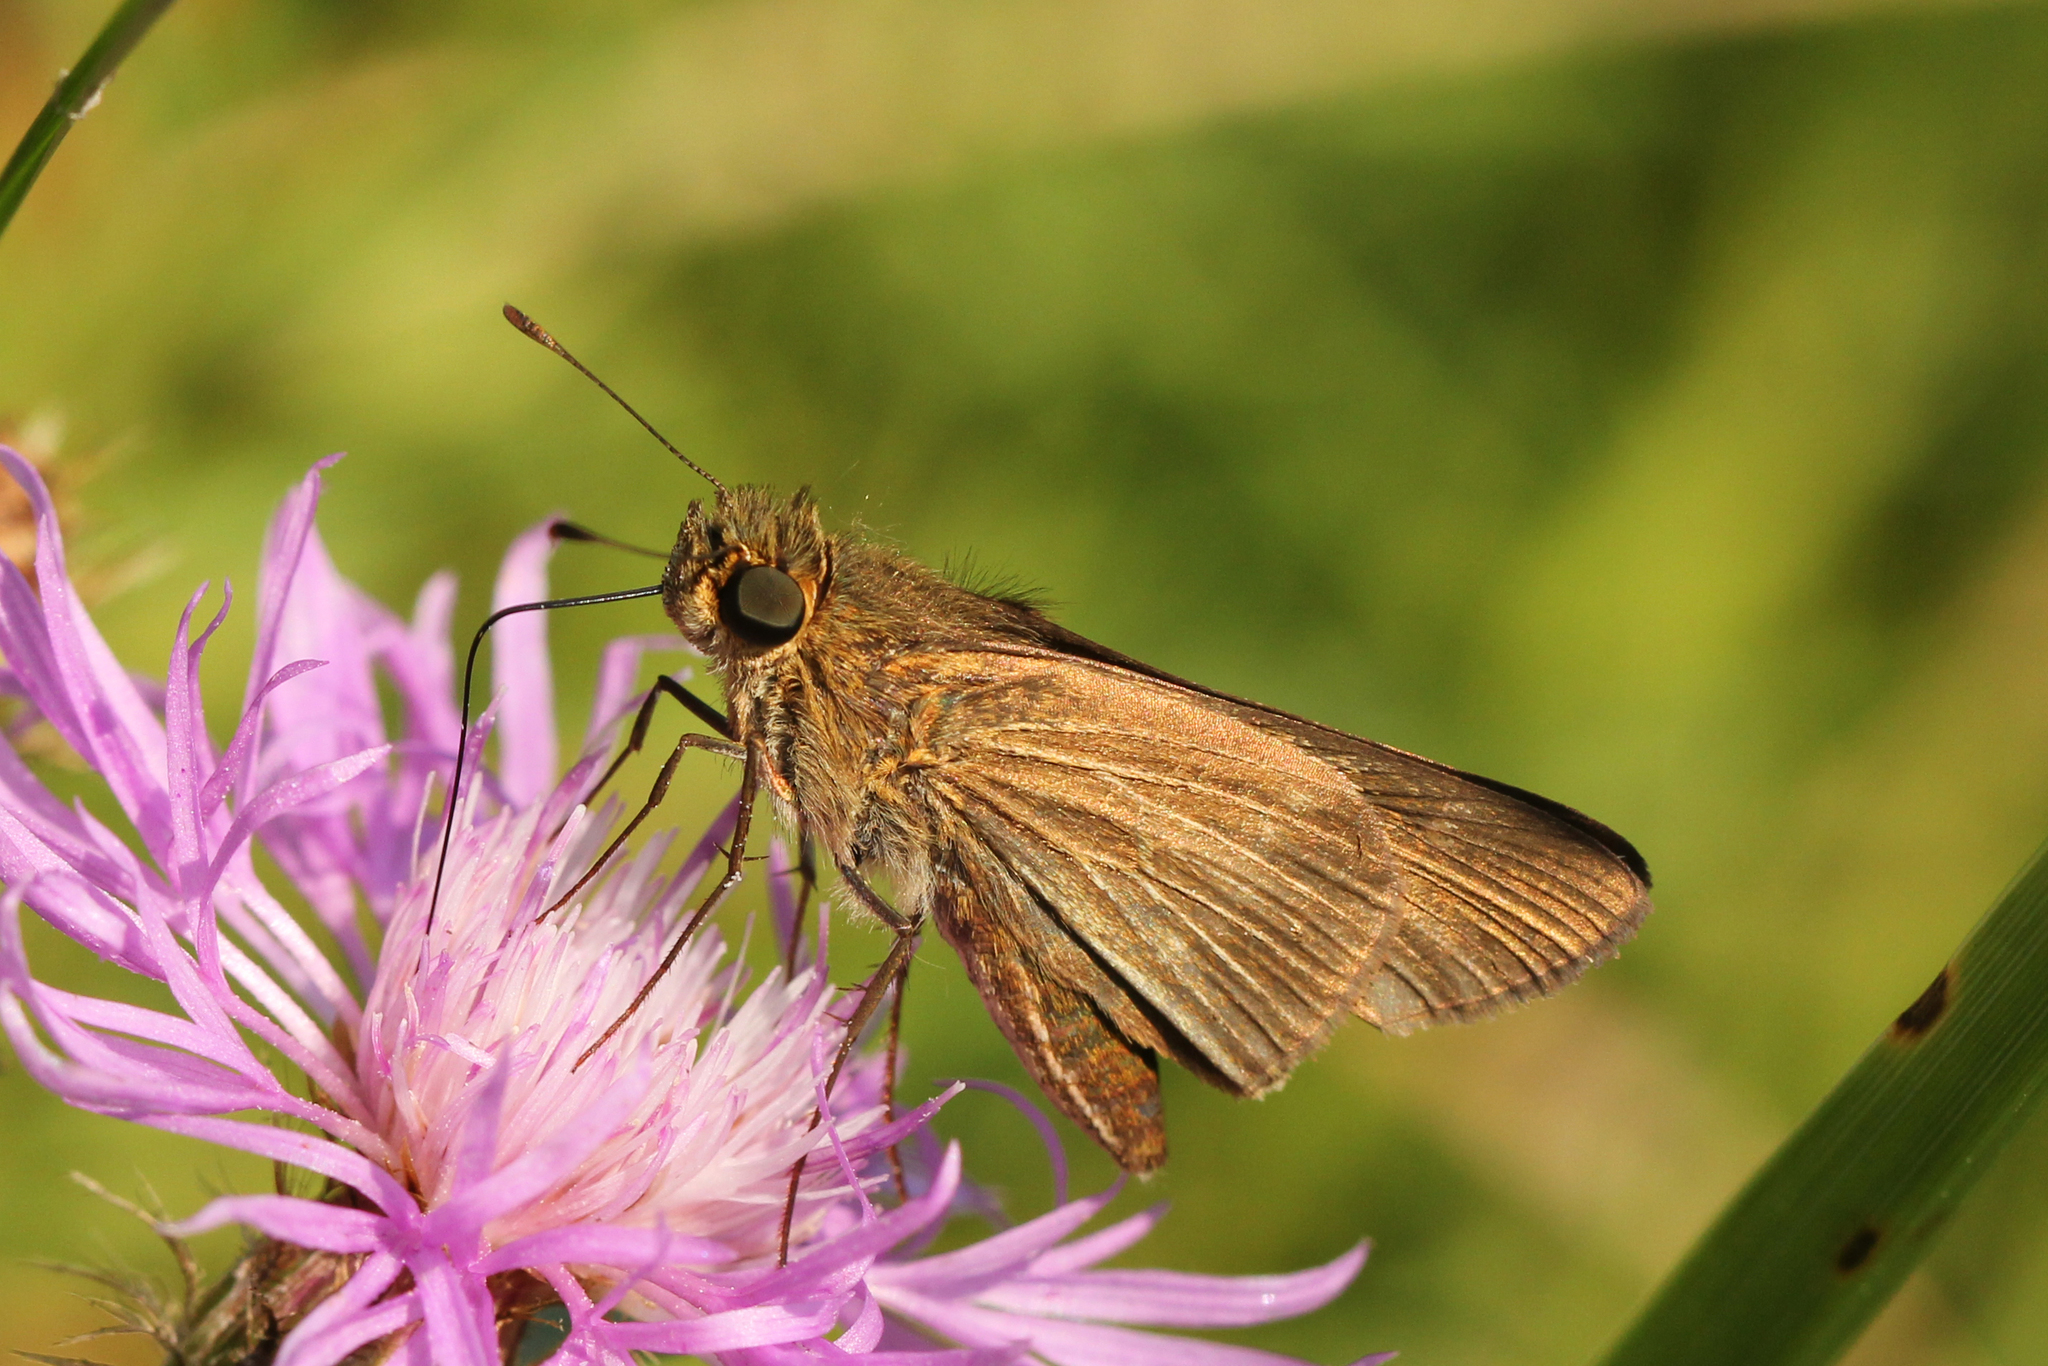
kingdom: Animalia
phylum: Arthropoda
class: Insecta
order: Lepidoptera
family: Hesperiidae
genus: Panoquina
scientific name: Panoquina ocola
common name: Ocola skipper
